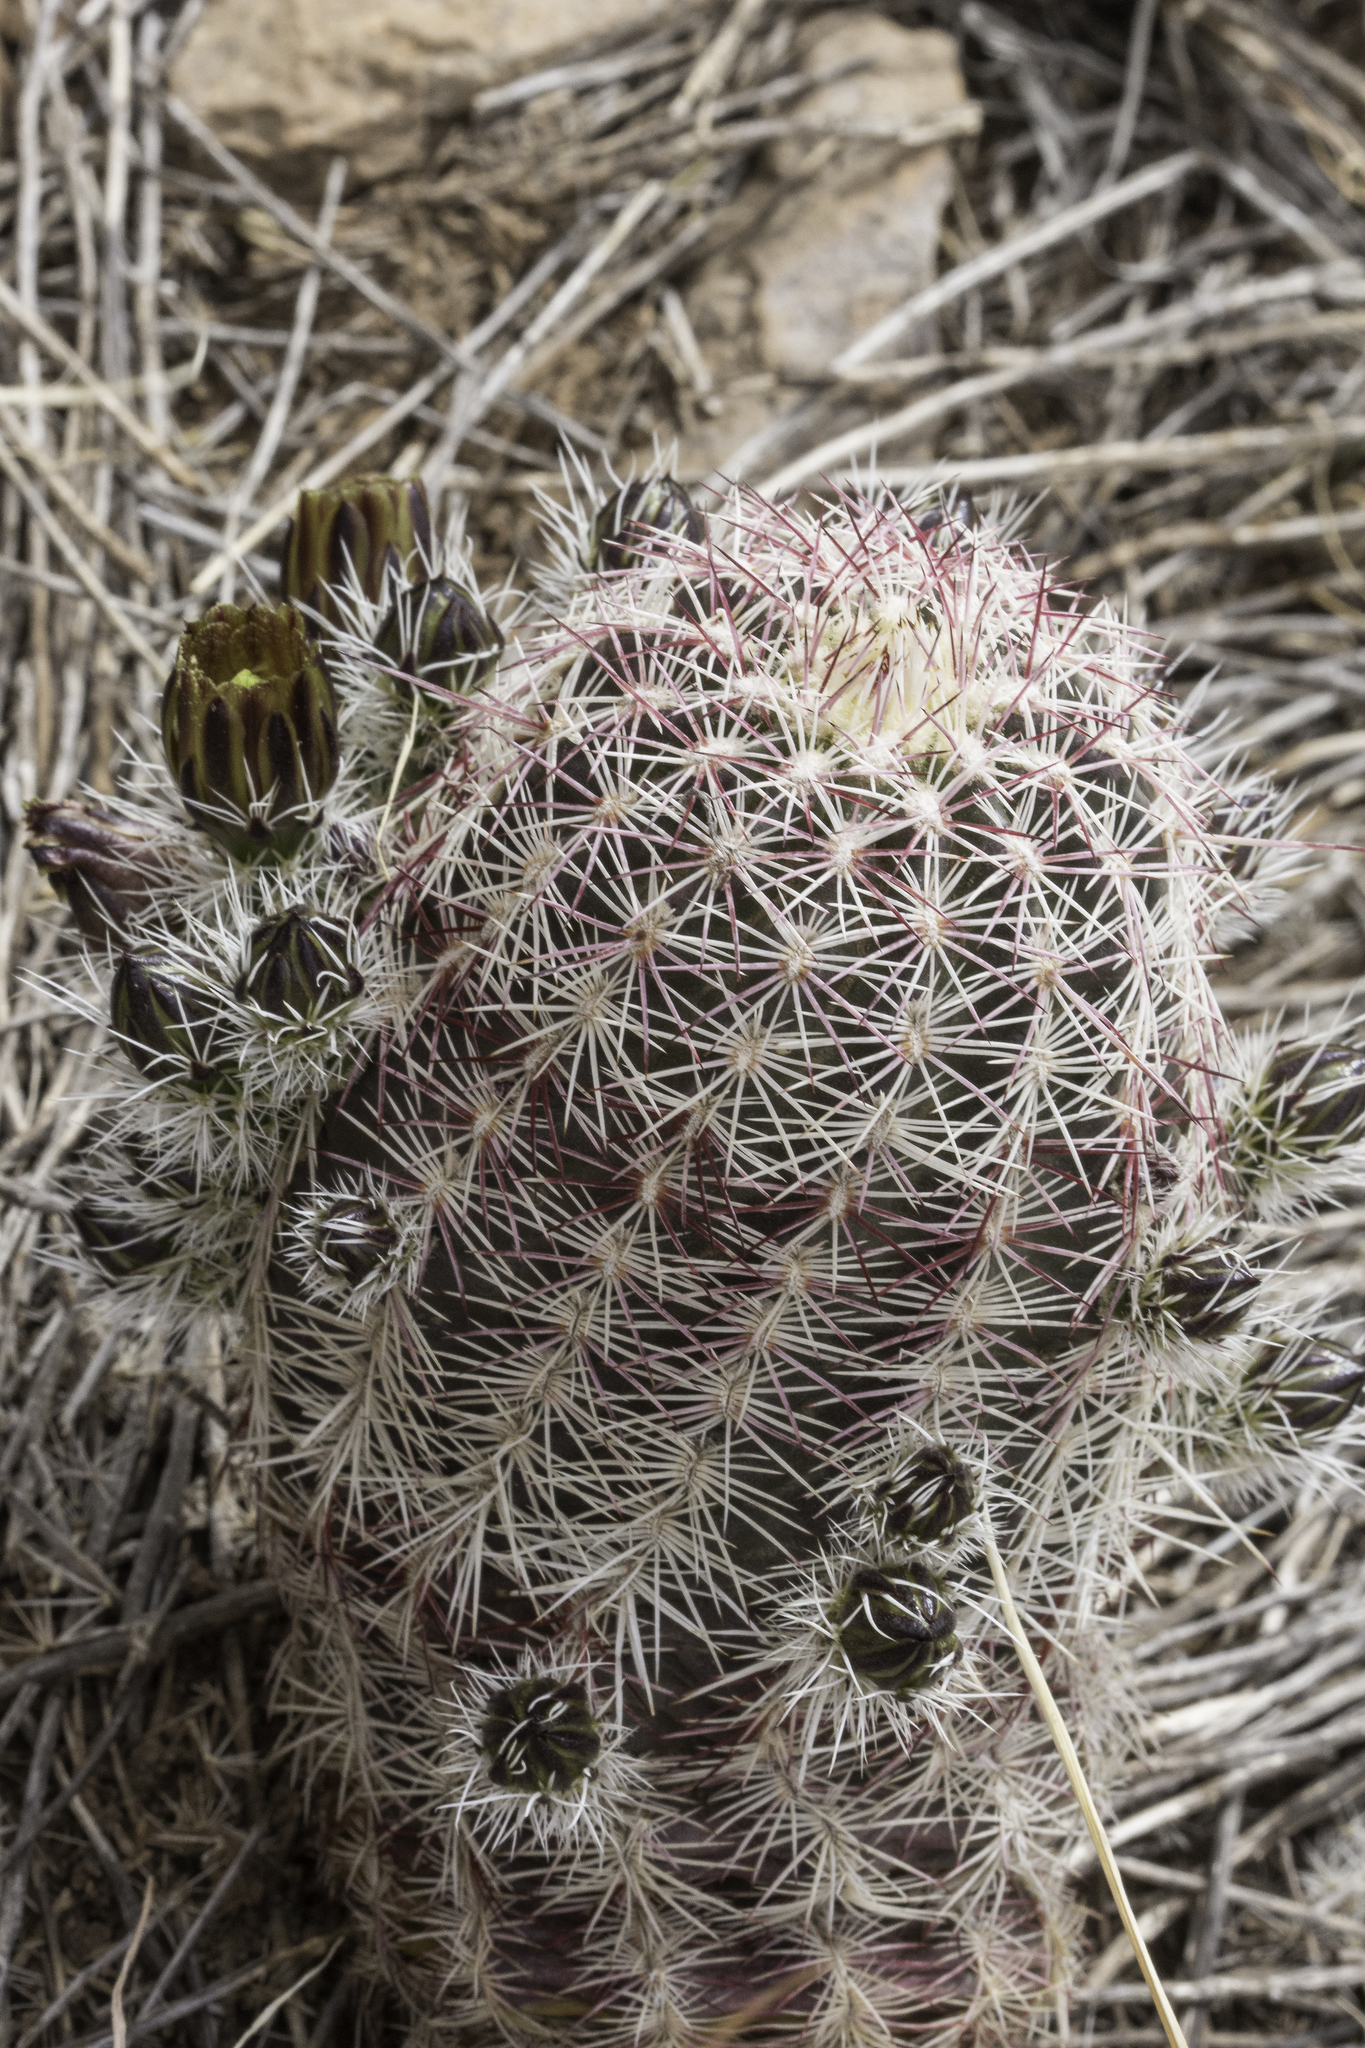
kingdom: Plantae
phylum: Tracheophyta
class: Magnoliopsida
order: Caryophyllales
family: Cactaceae
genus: Echinocereus
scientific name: Echinocereus viridiflorus
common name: Nylon hedgehog cactus
